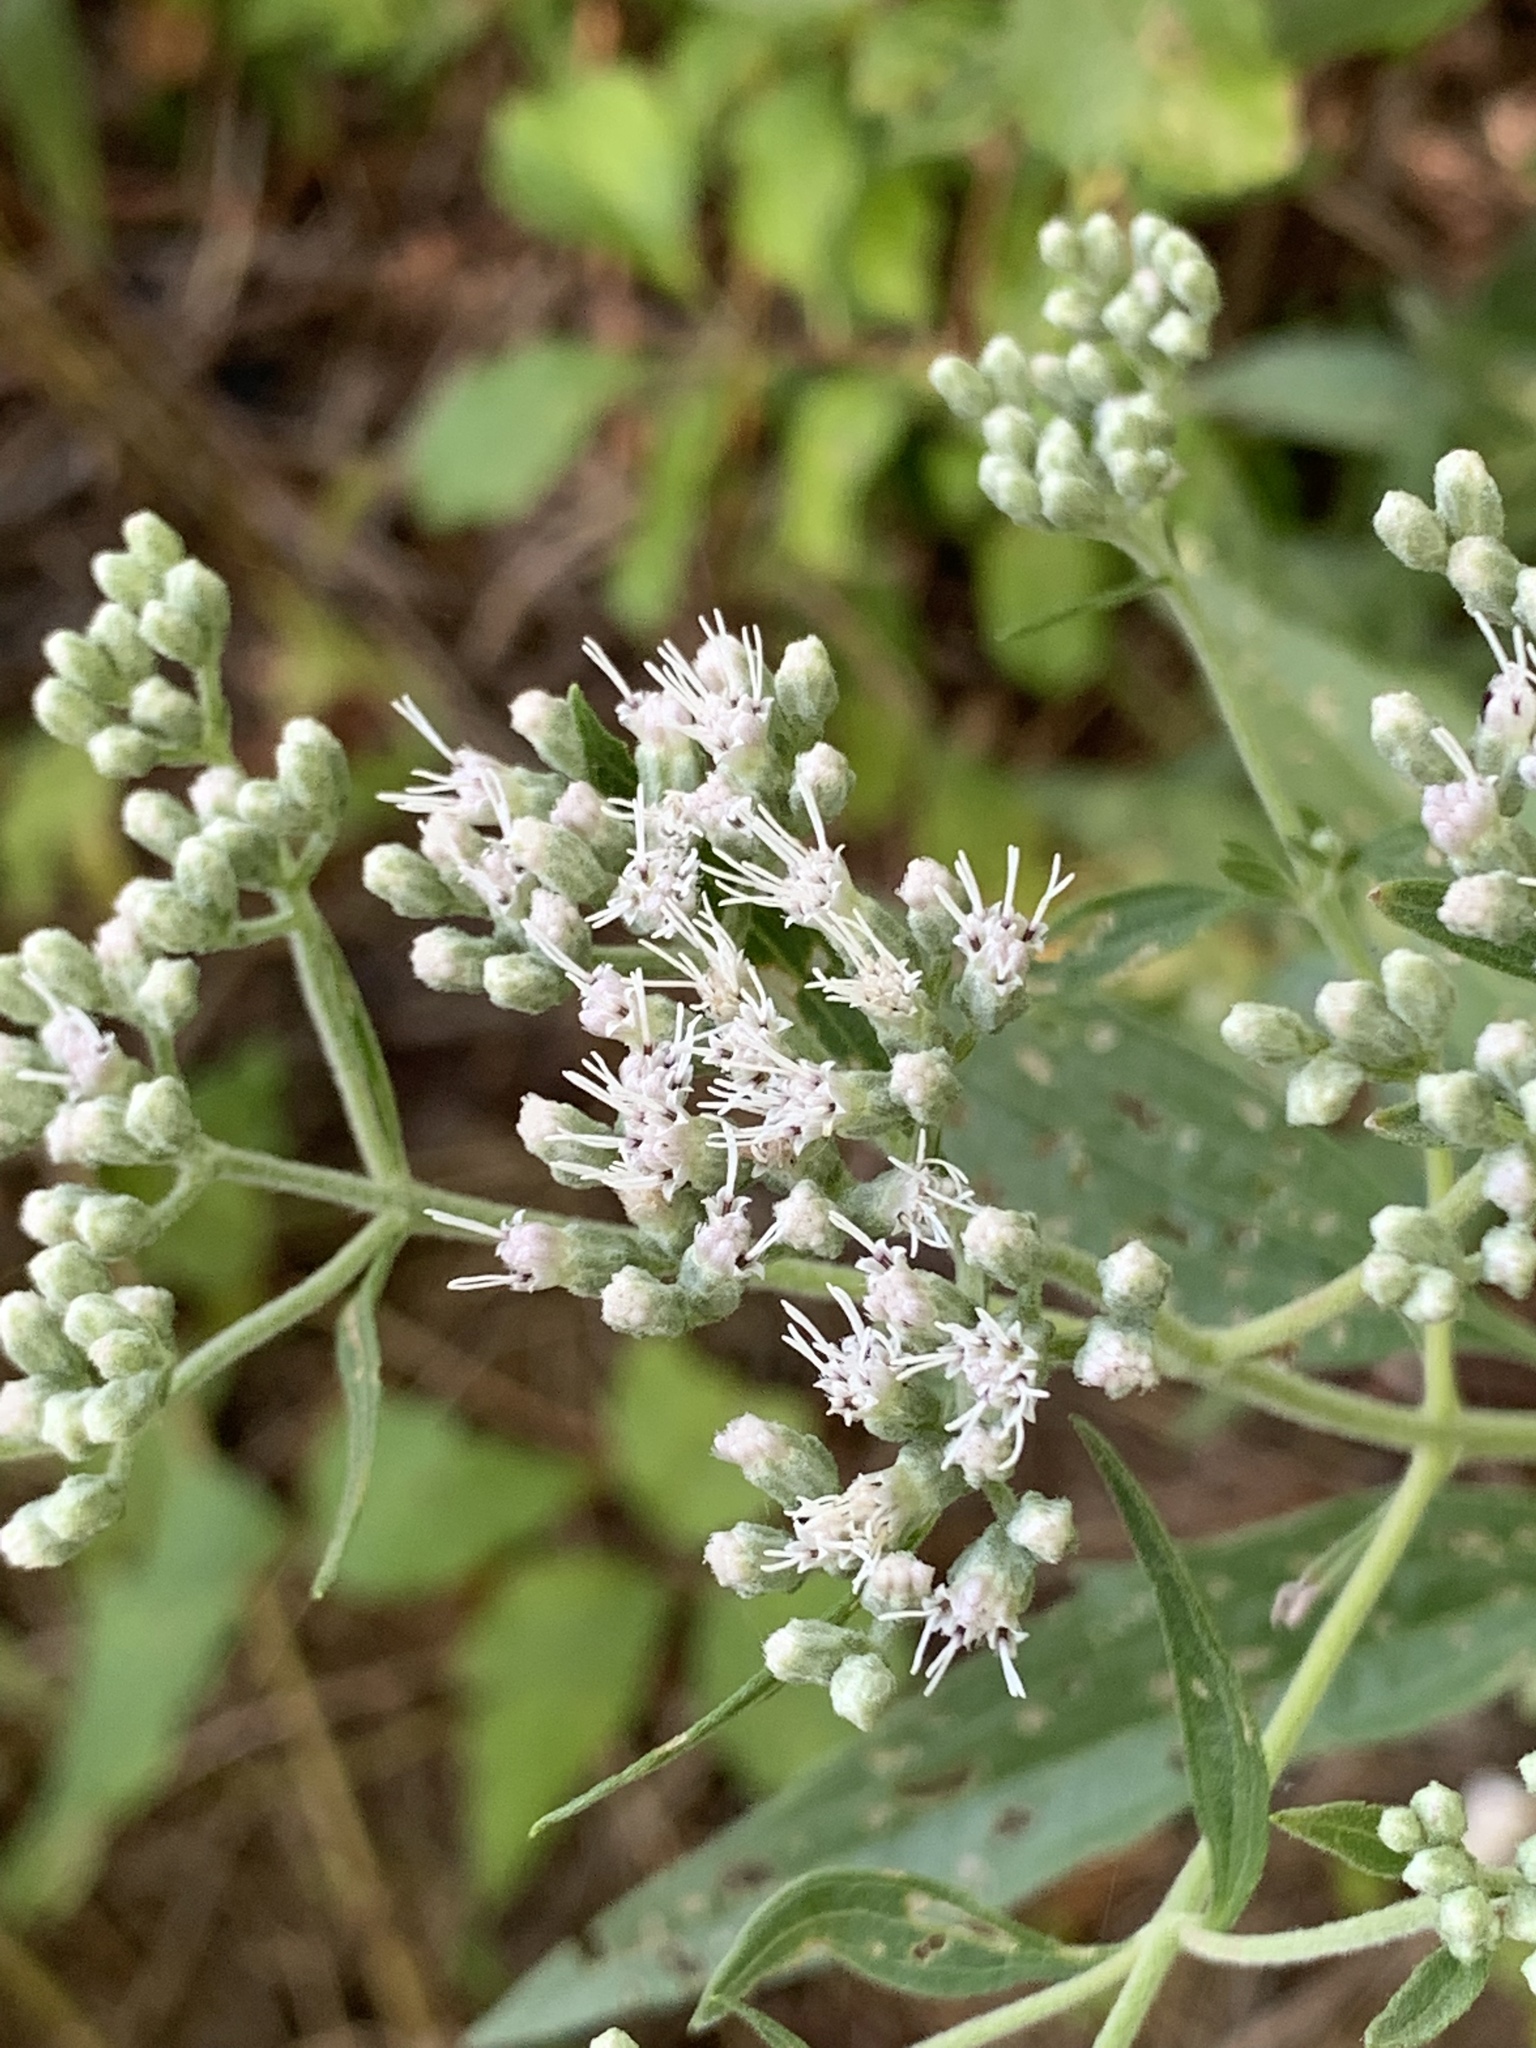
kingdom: Plantae
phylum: Tracheophyta
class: Magnoliopsida
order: Asterales
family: Asteraceae
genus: Eupatorium
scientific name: Eupatorium serotinum
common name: Late boneset
